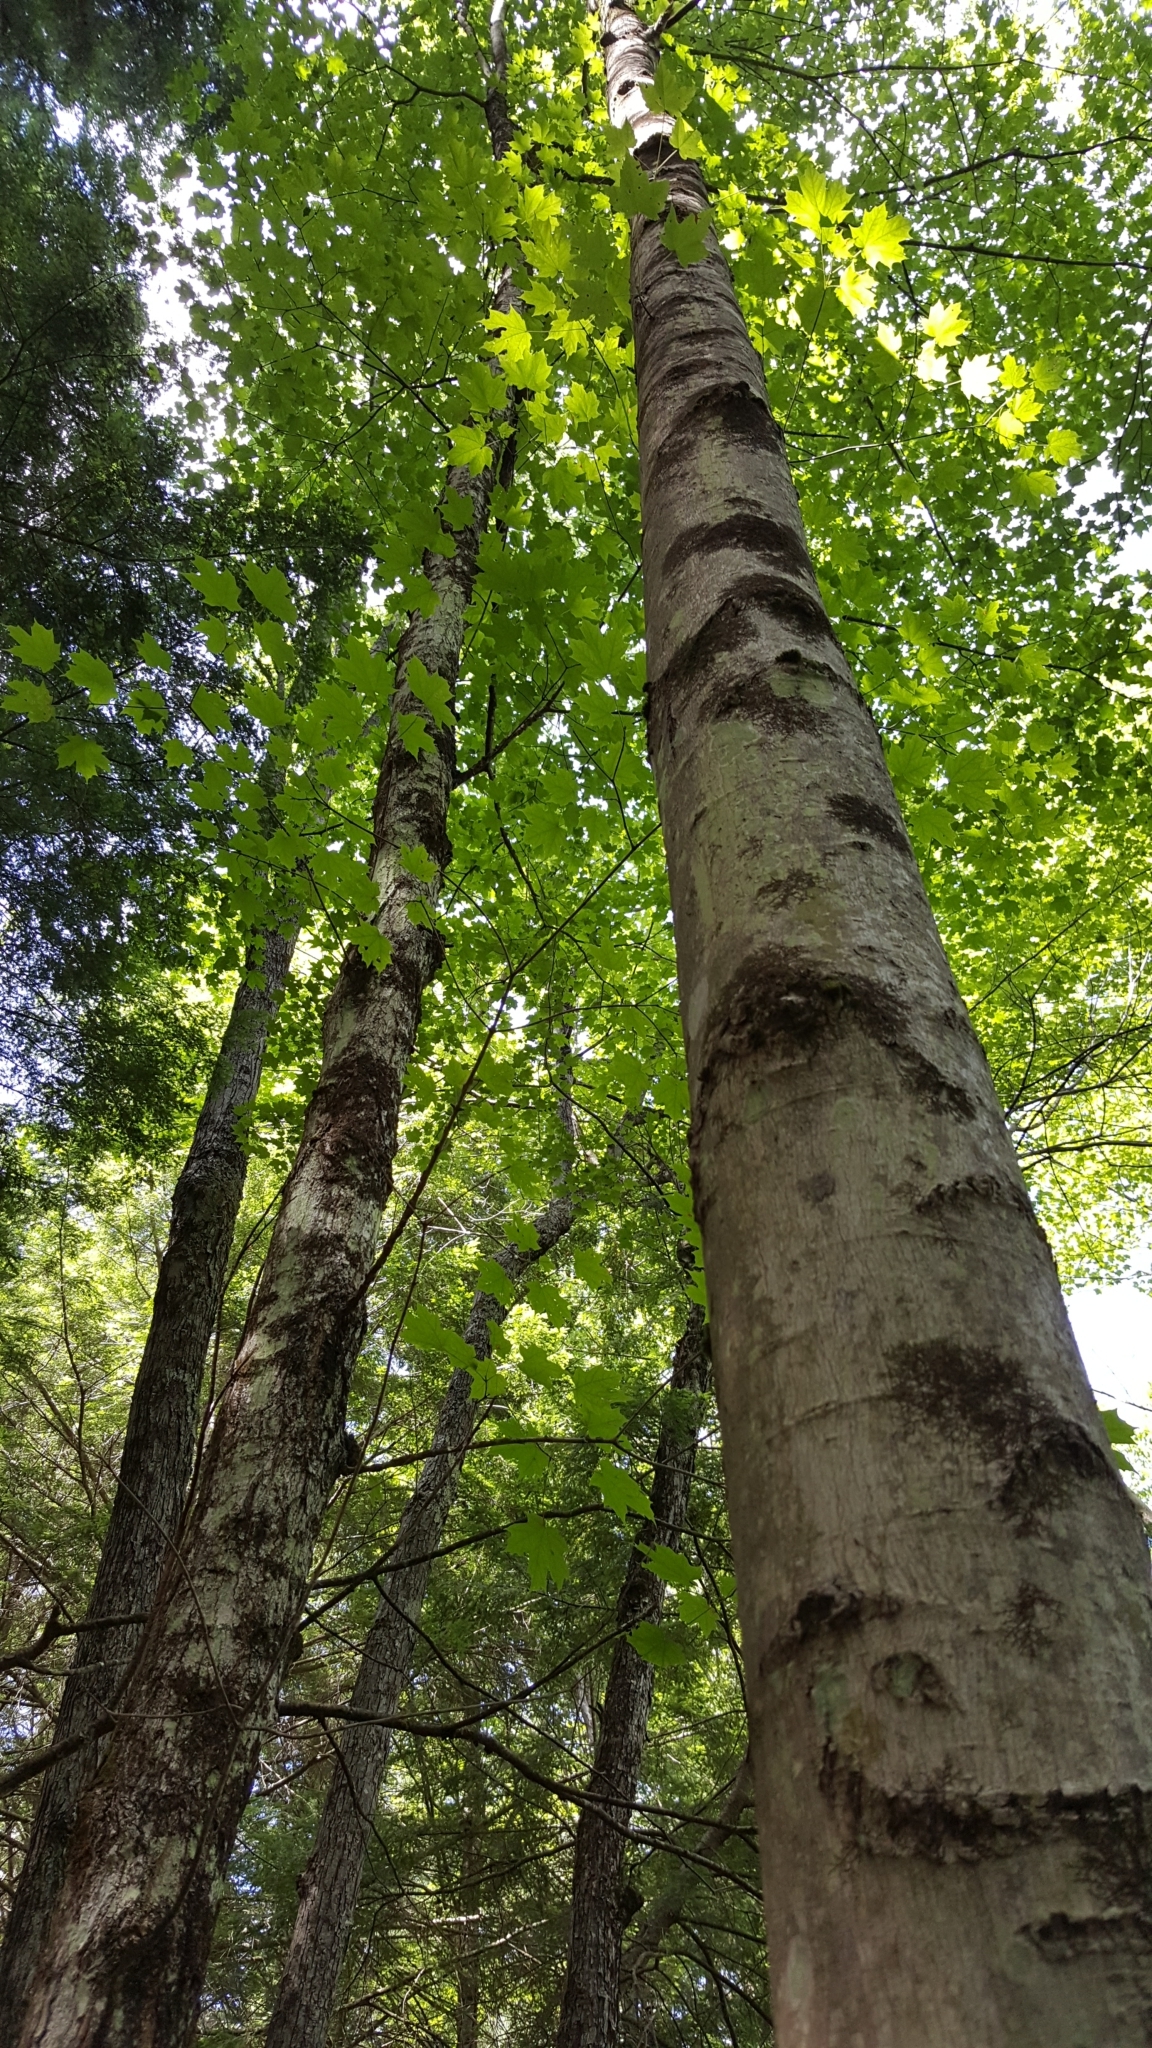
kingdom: Plantae
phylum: Tracheophyta
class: Magnoliopsida
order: Sapindales
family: Sapindaceae
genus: Acer
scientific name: Acer saccharum
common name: Sugar maple
